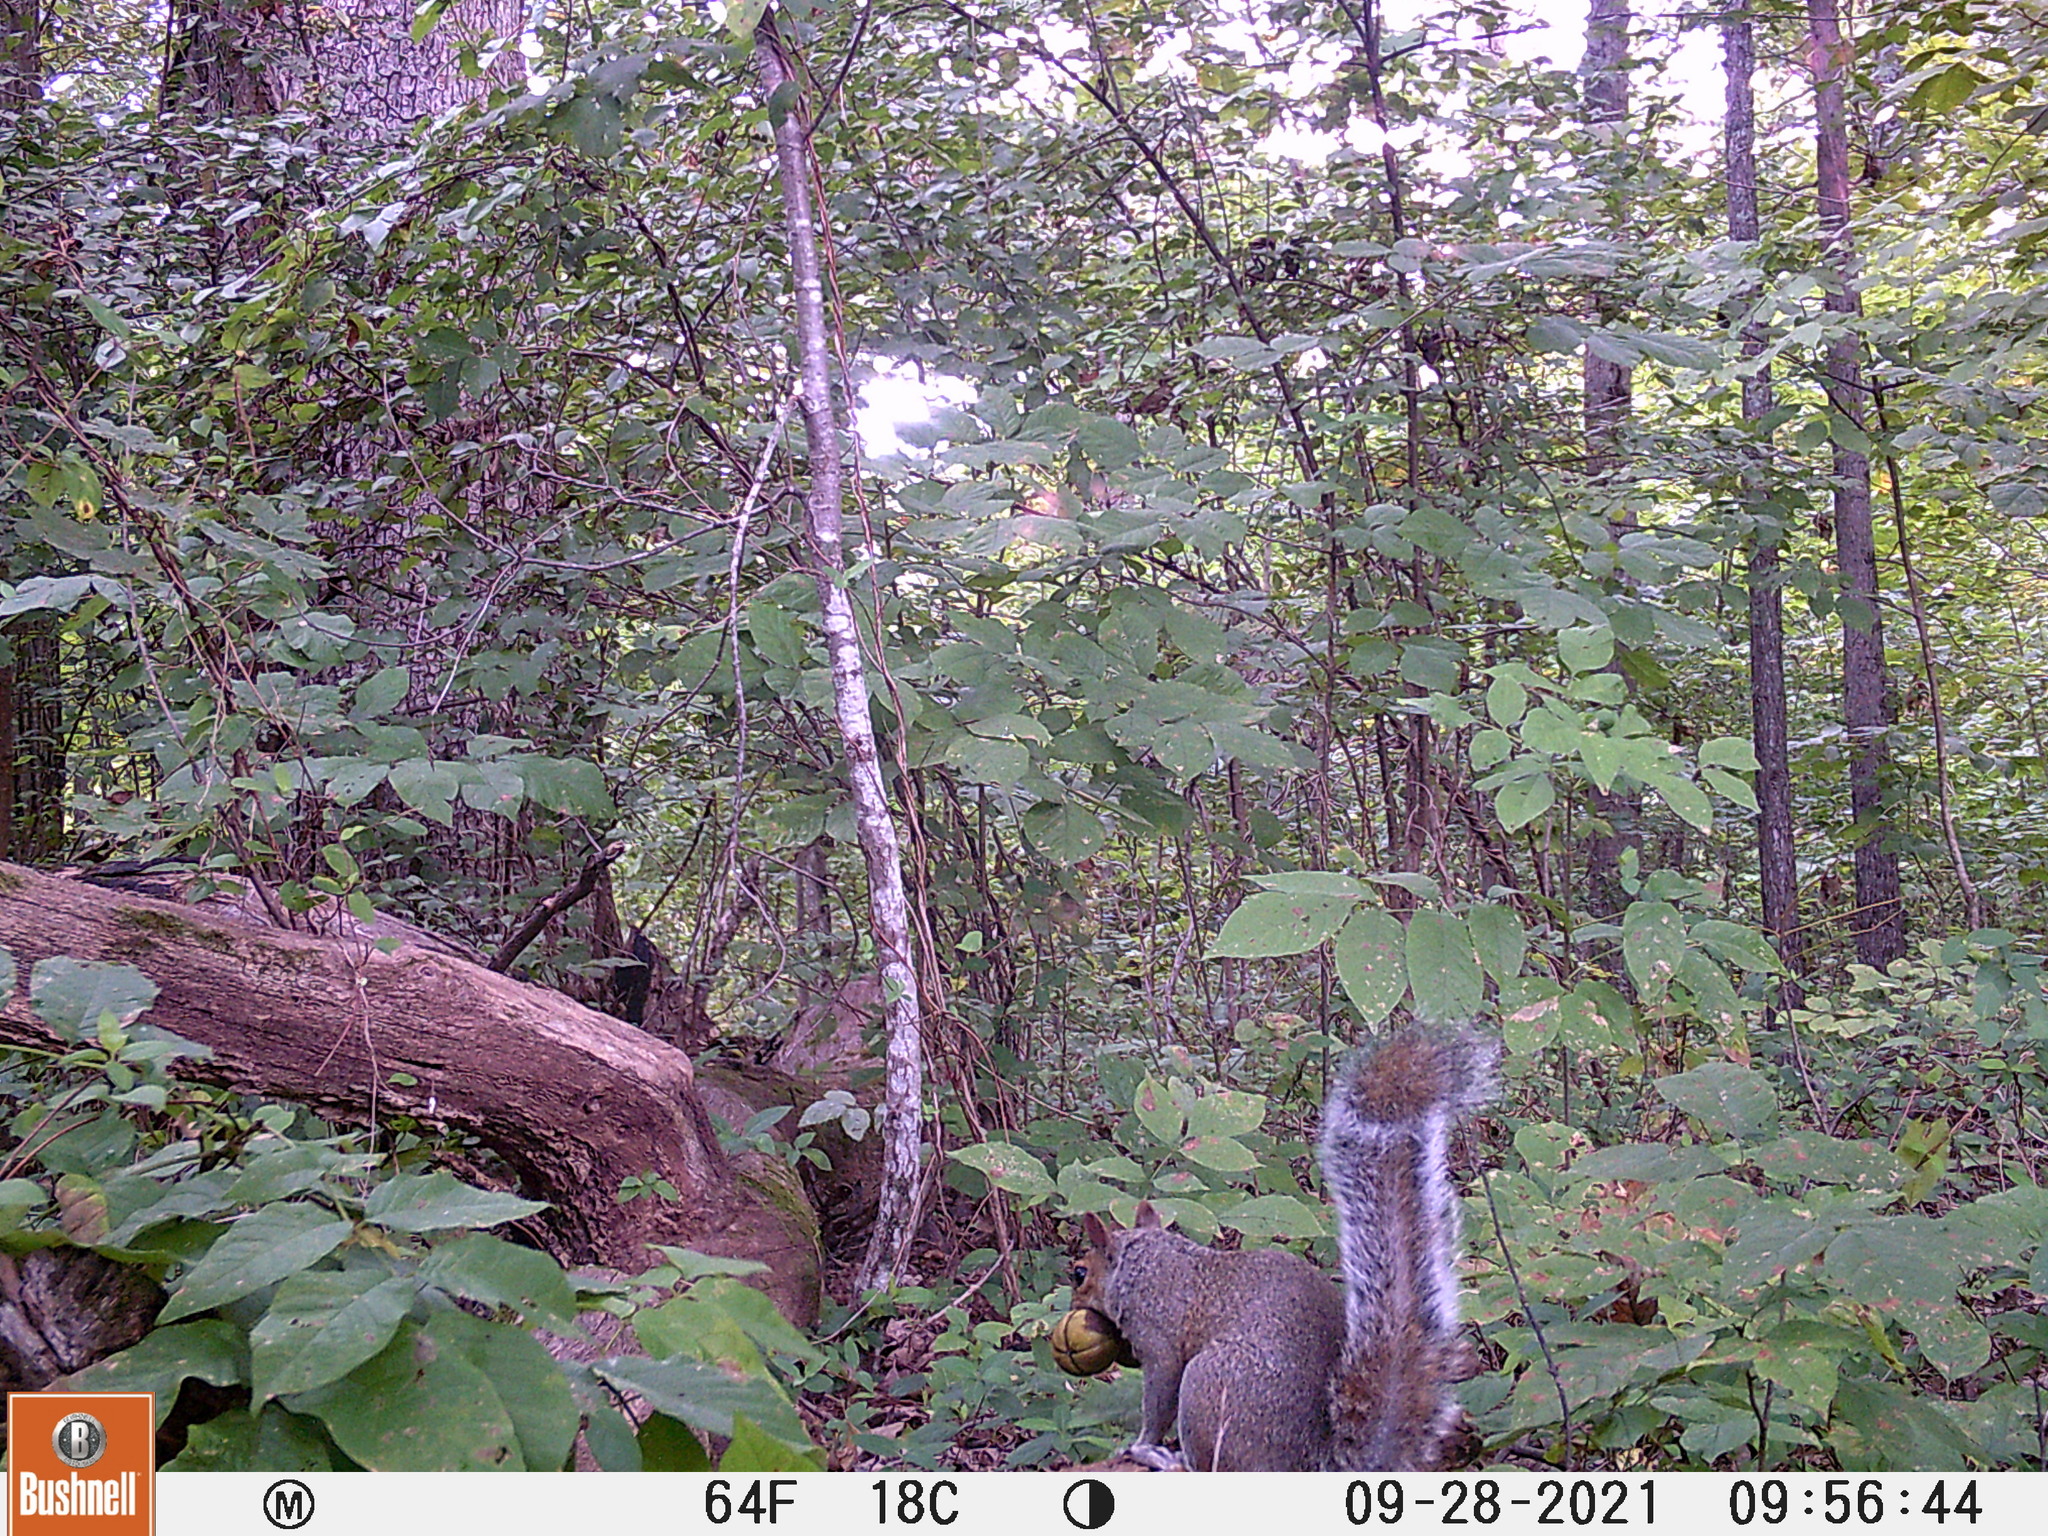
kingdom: Animalia
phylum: Chordata
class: Mammalia
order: Rodentia
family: Sciuridae
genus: Sciurus
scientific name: Sciurus carolinensis
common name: Eastern gray squirrel
